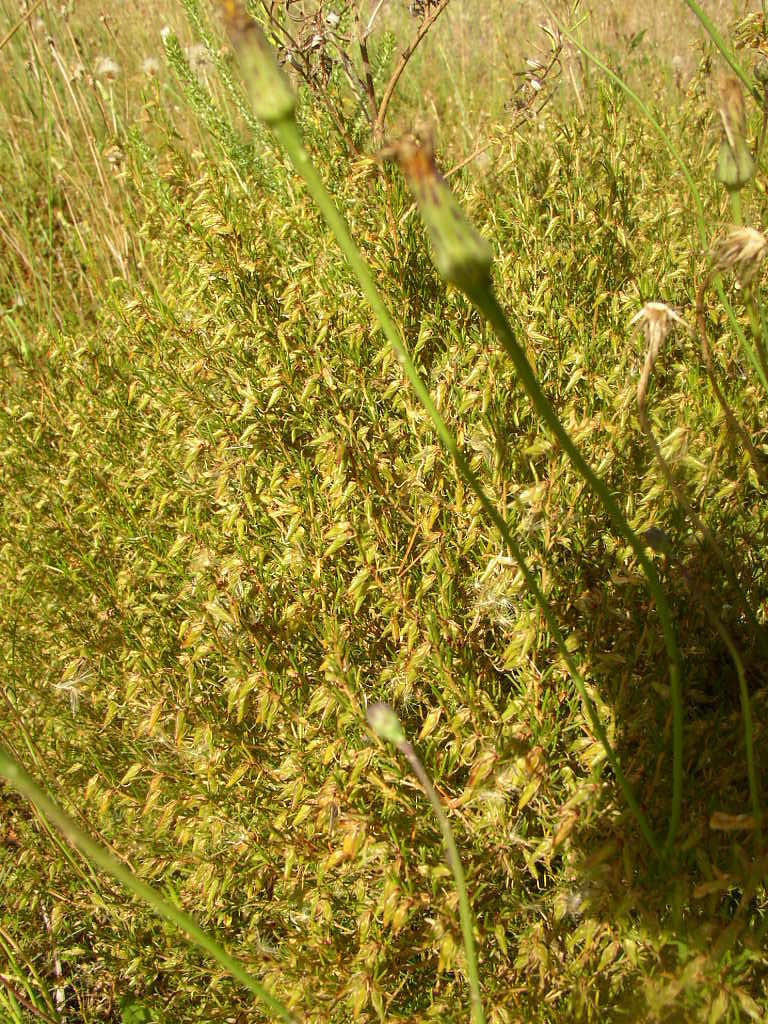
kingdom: Plantae
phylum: Tracheophyta
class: Magnoliopsida
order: Fabales
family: Fabaceae
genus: Aspalathus
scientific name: Aspalathus abietina
